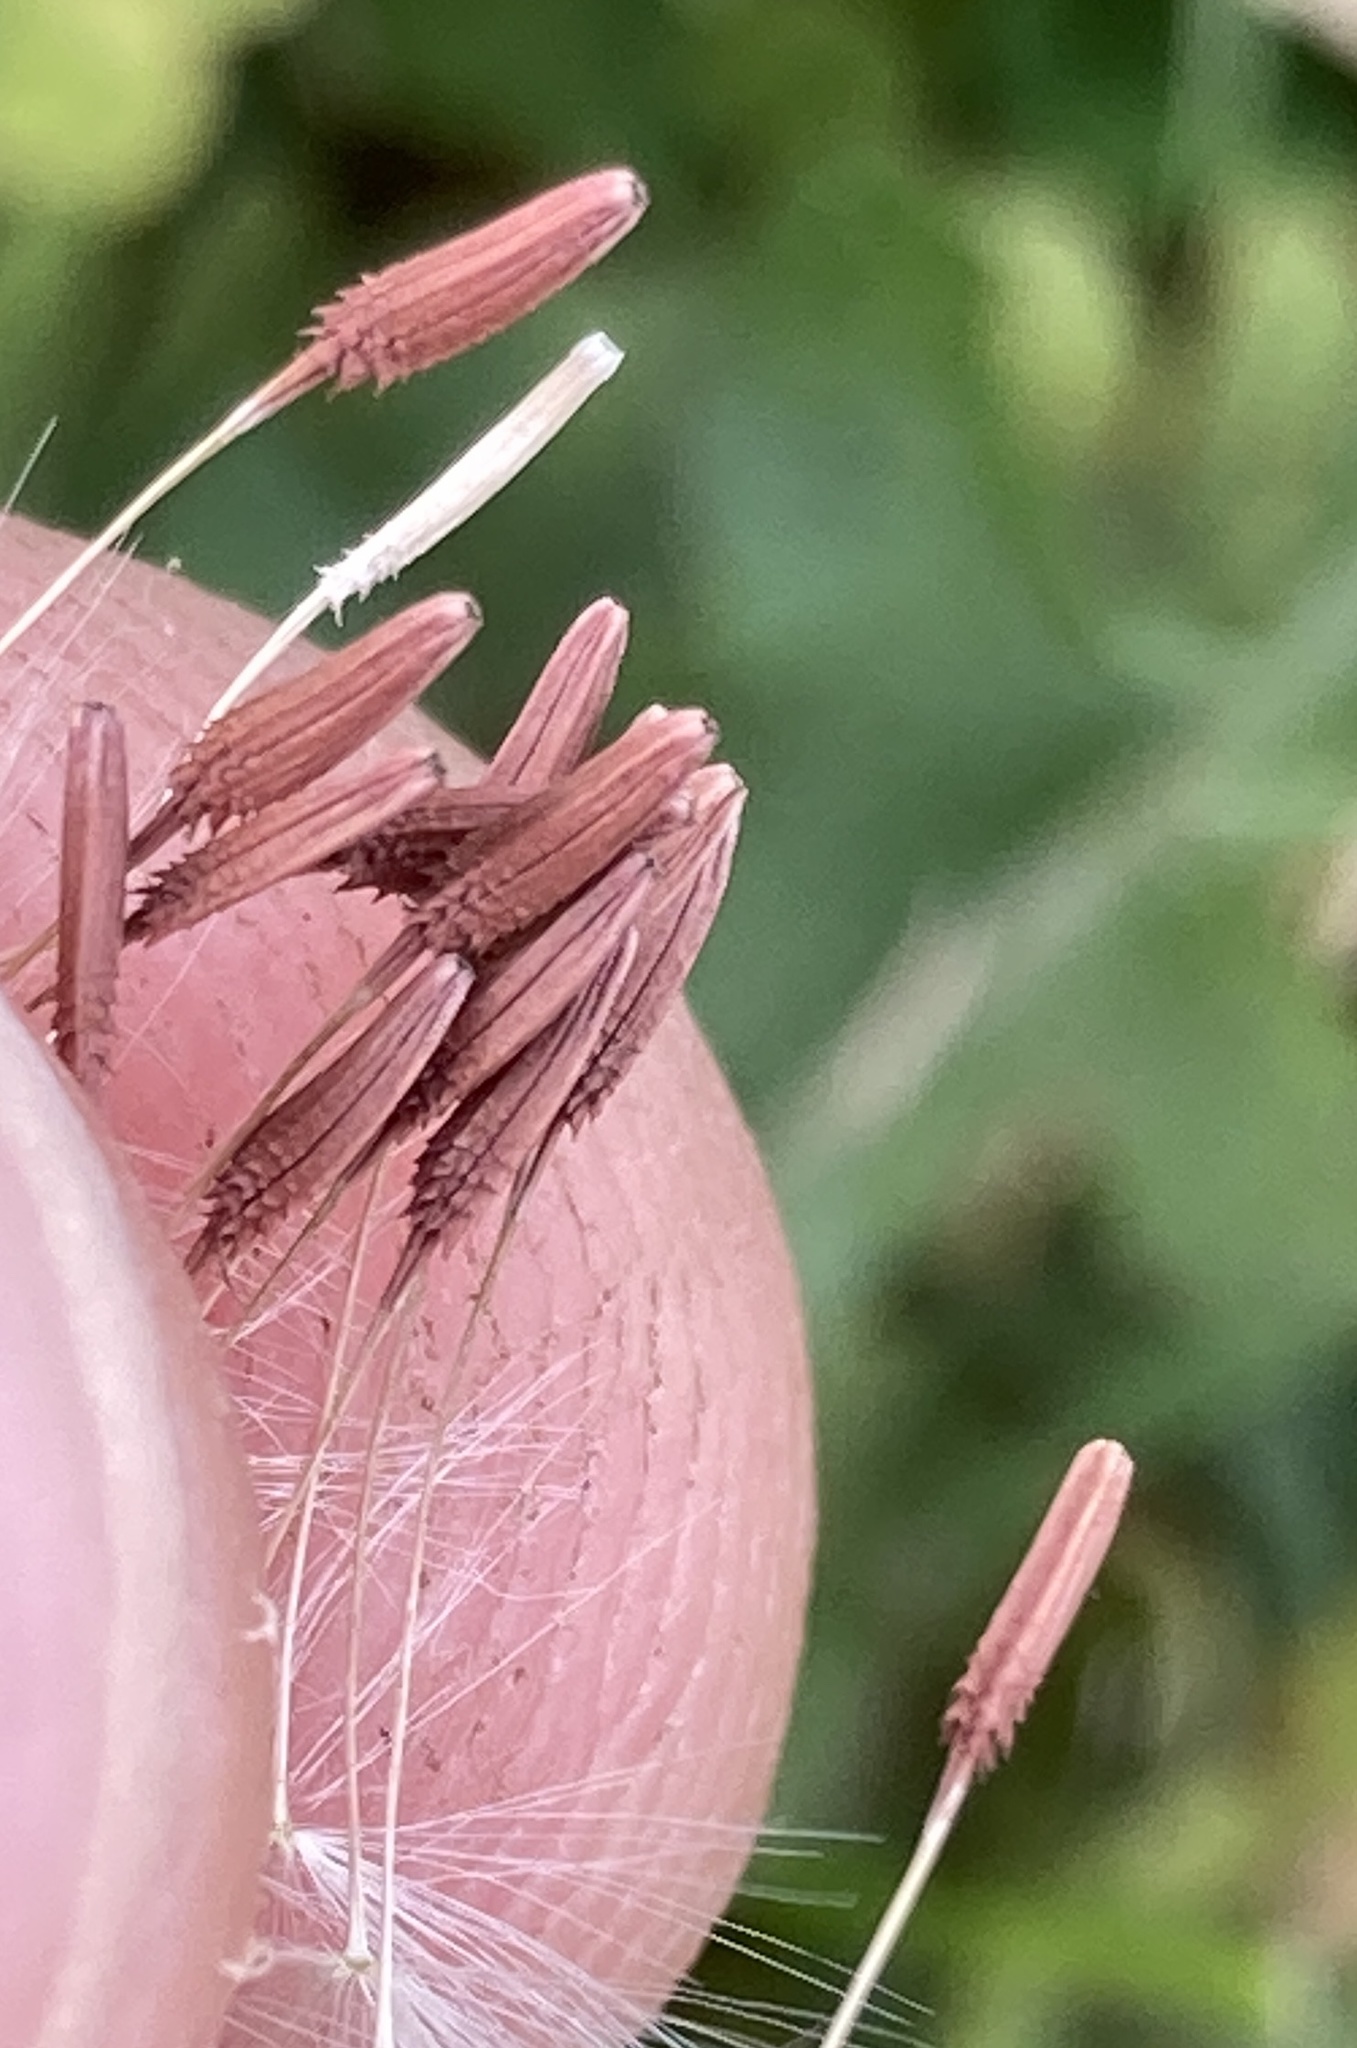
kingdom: Plantae
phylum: Tracheophyta
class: Magnoliopsida
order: Asterales
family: Asteraceae
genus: Taraxacum
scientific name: Taraxacum erythrospermum
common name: Rock dandelion
